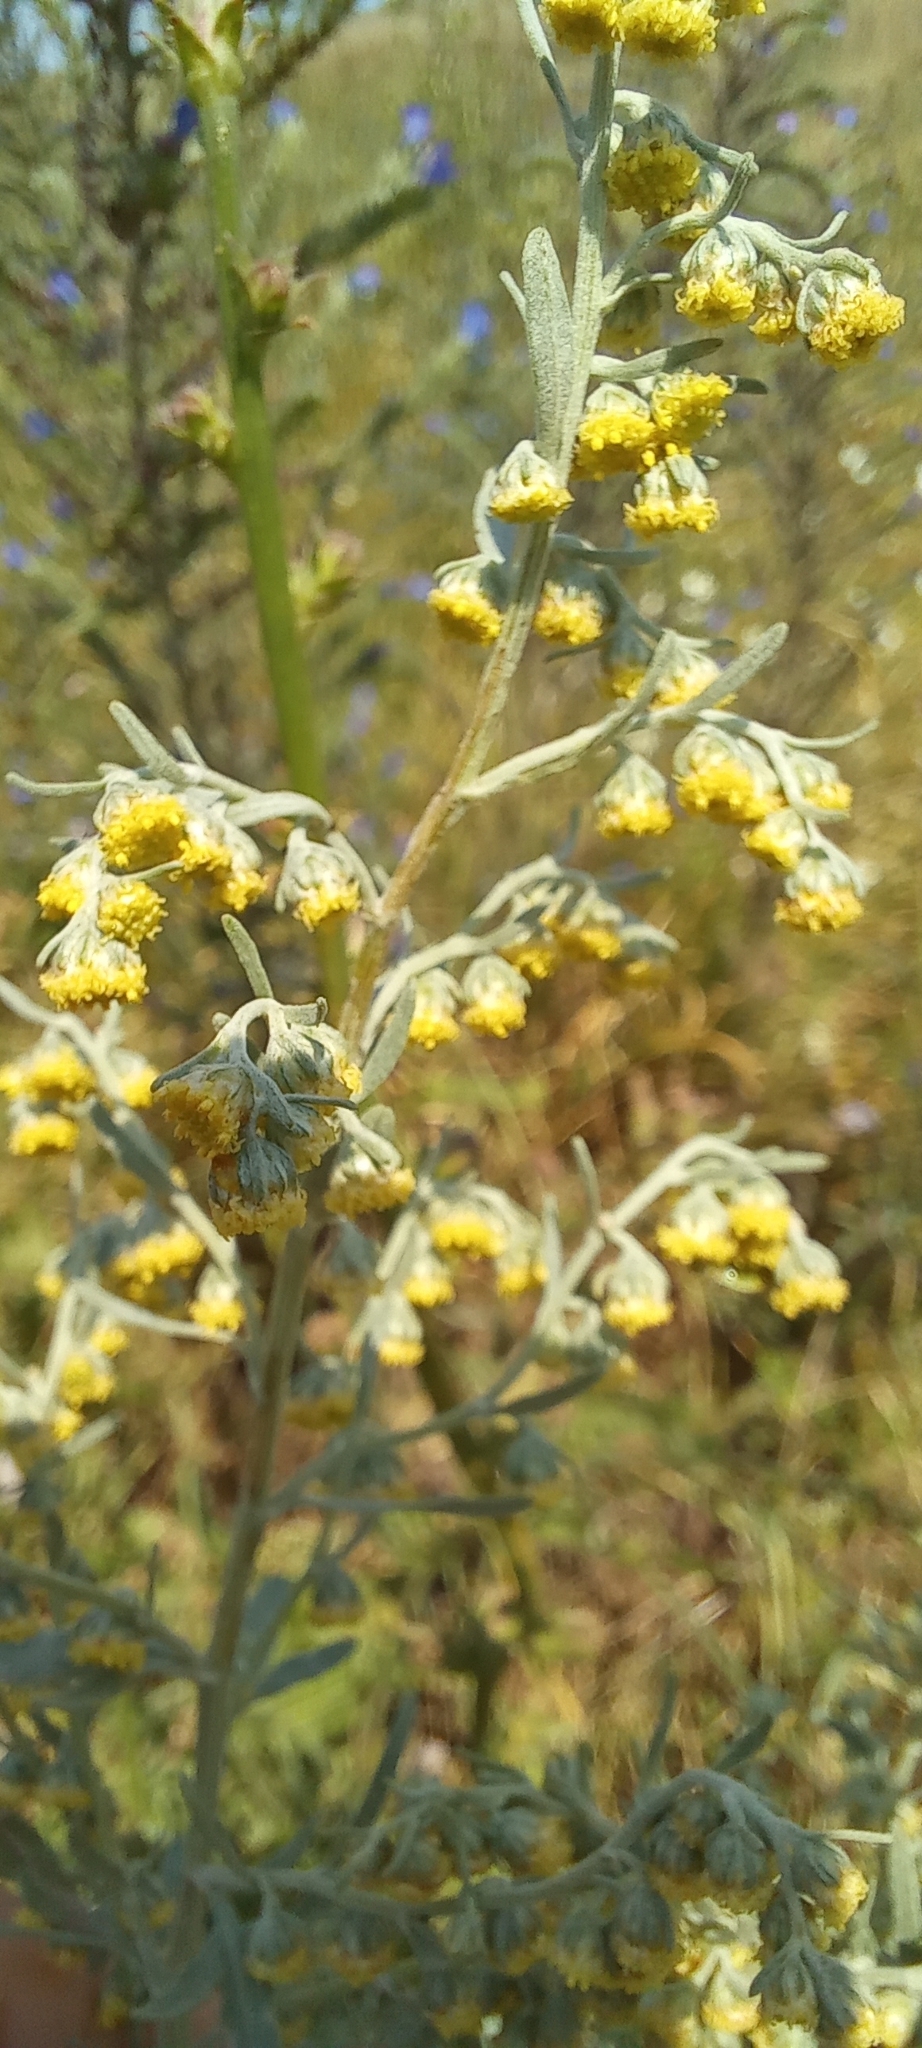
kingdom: Plantae
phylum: Tracheophyta
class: Magnoliopsida
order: Asterales
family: Asteraceae
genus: Artemisia
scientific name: Artemisia absinthium
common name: Wormwood
